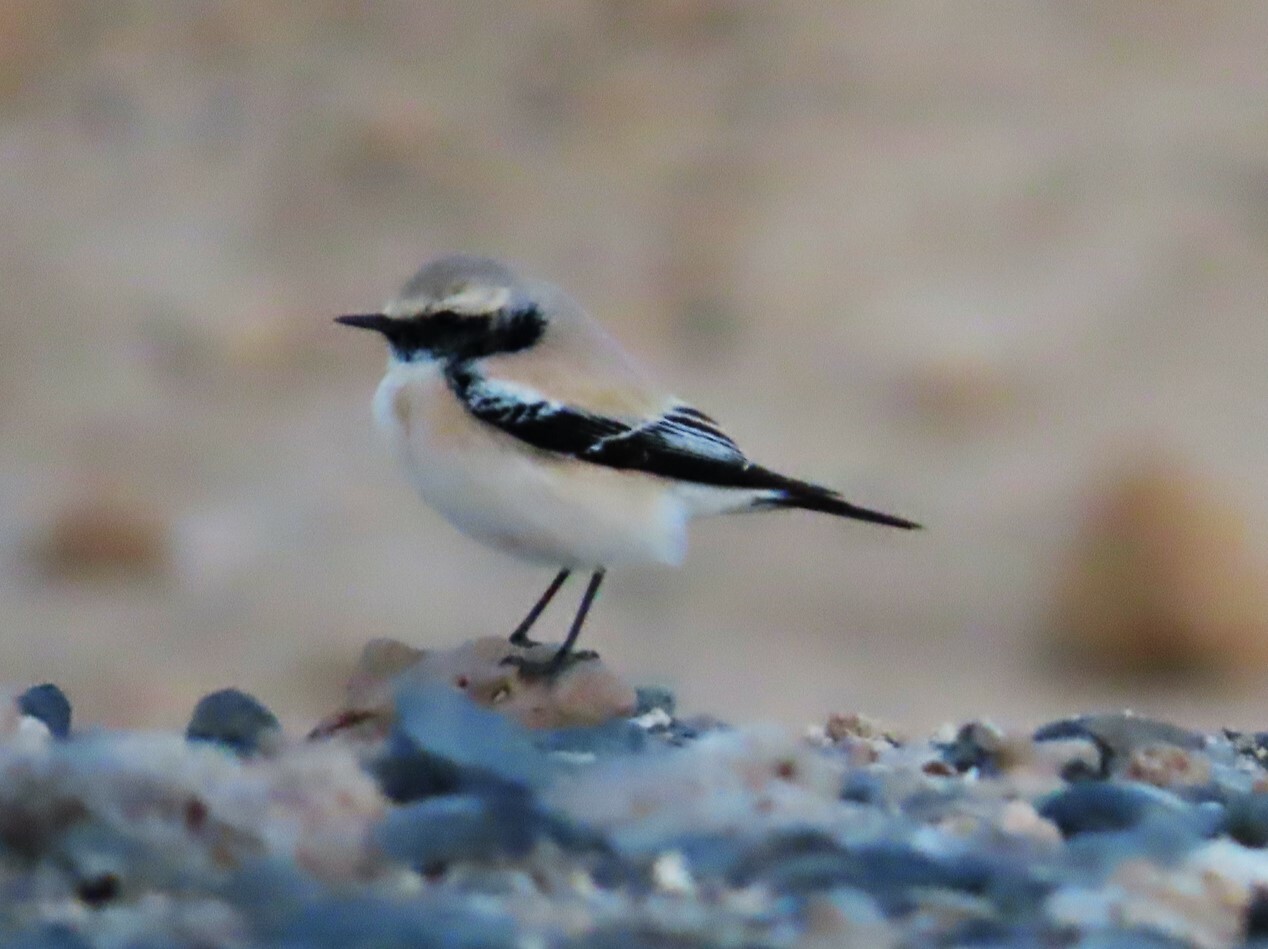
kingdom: Animalia
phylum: Chordata
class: Aves
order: Passeriformes
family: Muscicapidae
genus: Oenanthe
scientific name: Oenanthe deserti
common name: Desert wheatear
